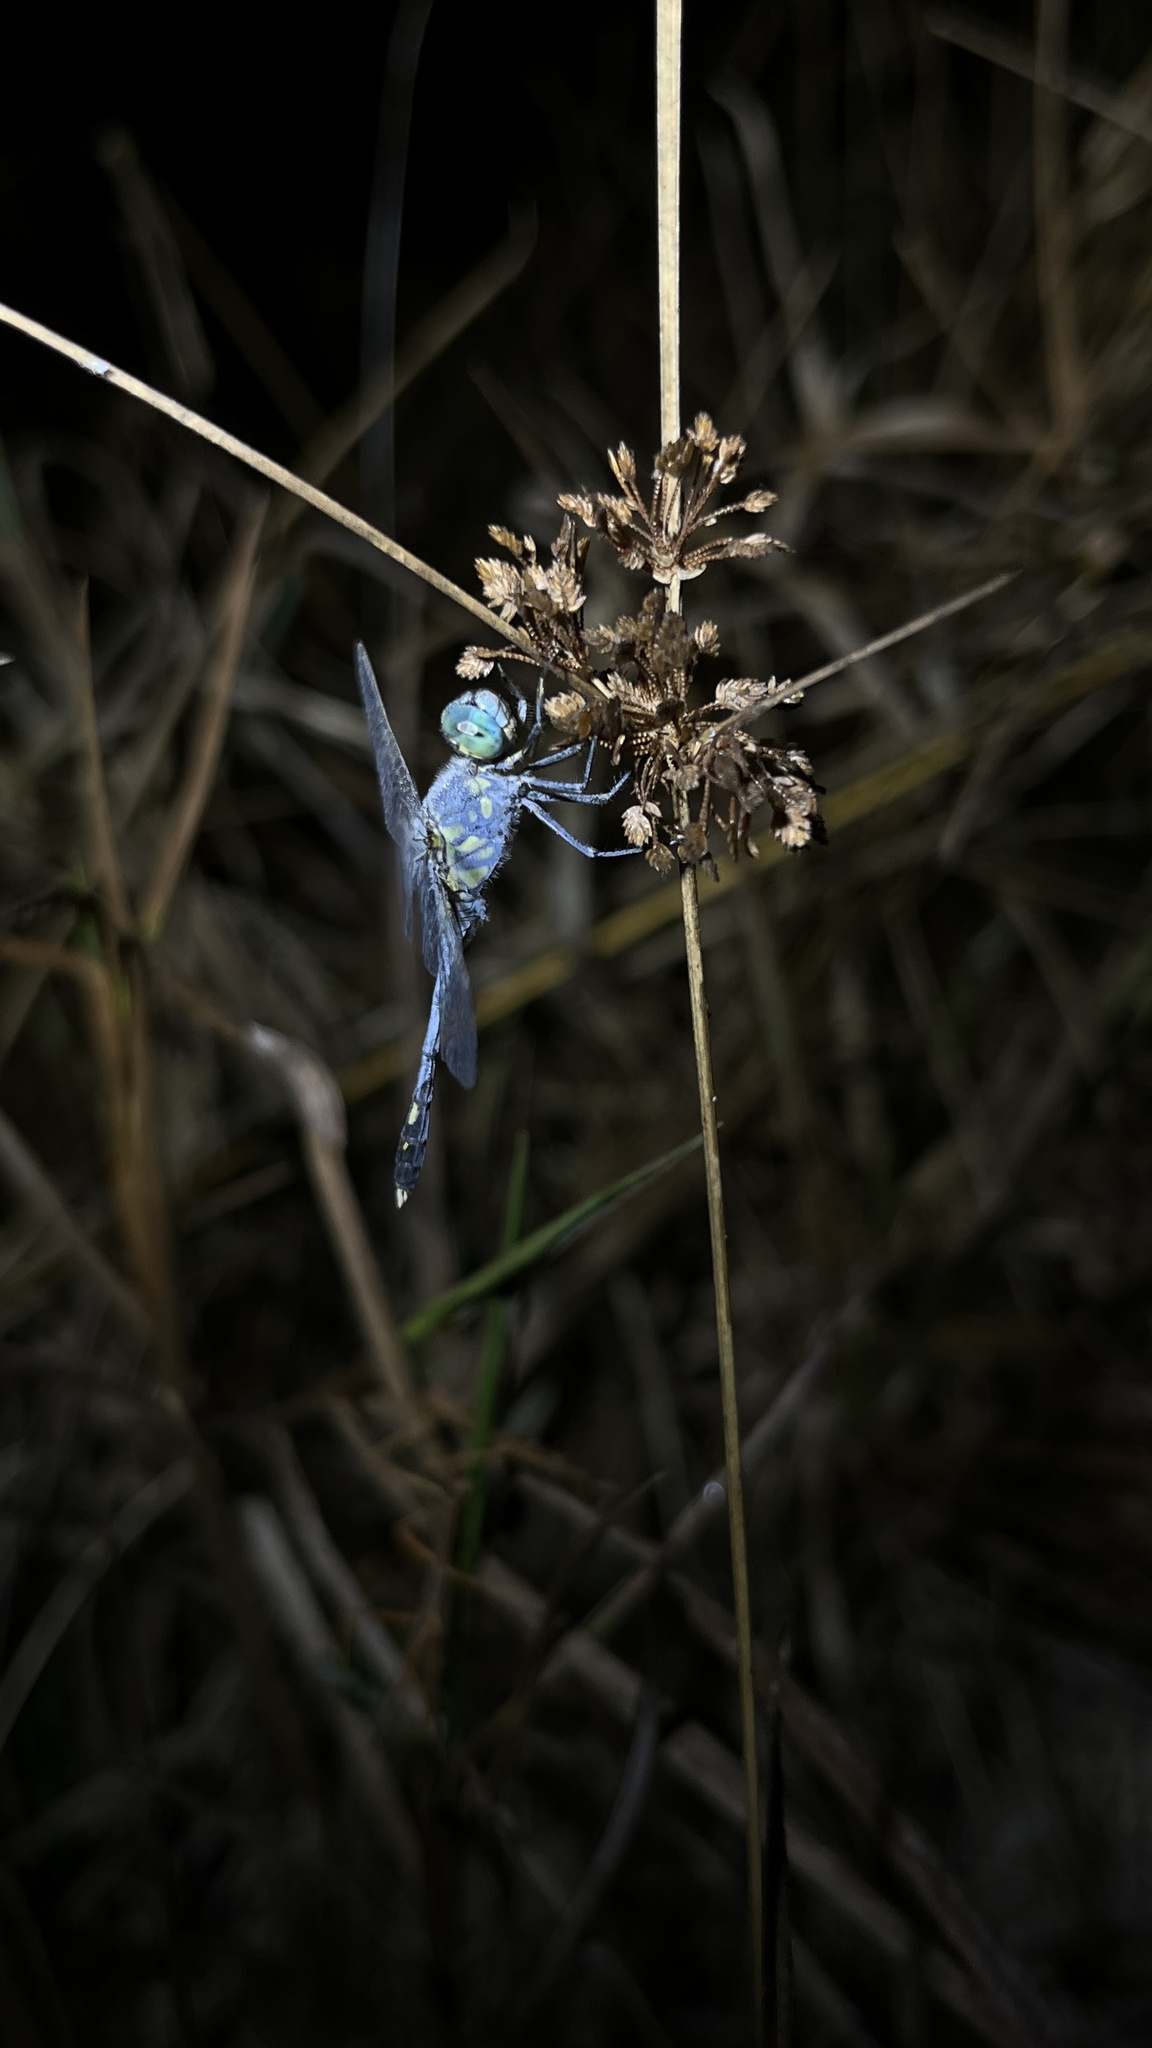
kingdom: Animalia
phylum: Arthropoda
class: Insecta
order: Odonata
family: Libellulidae
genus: Diplacodes
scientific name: Diplacodes trivialis
